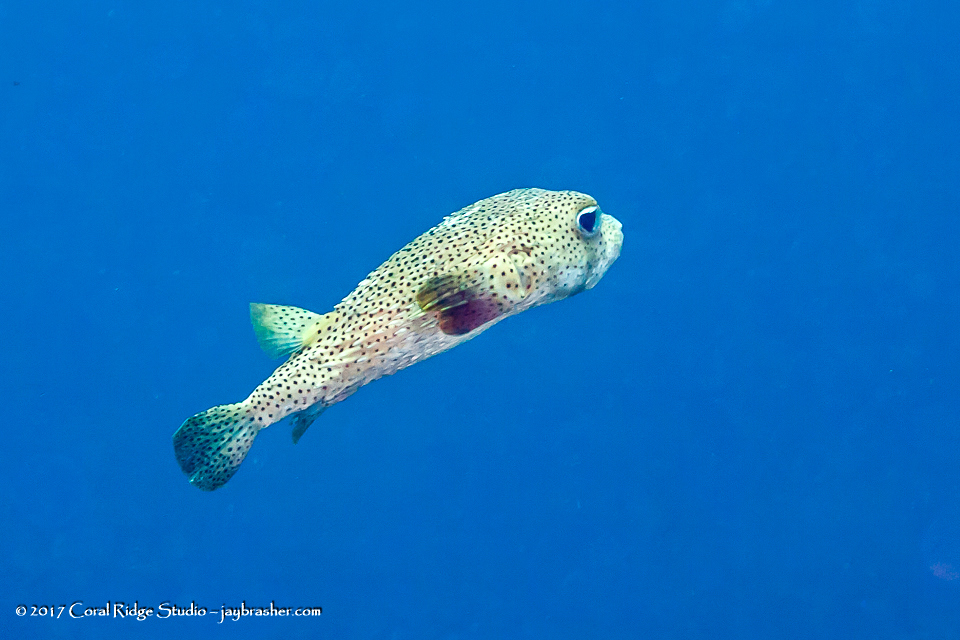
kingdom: Animalia
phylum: Chordata
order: Tetraodontiformes
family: Diodontidae
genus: Diodon
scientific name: Diodon hystrix
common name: Giant porcupinefish
